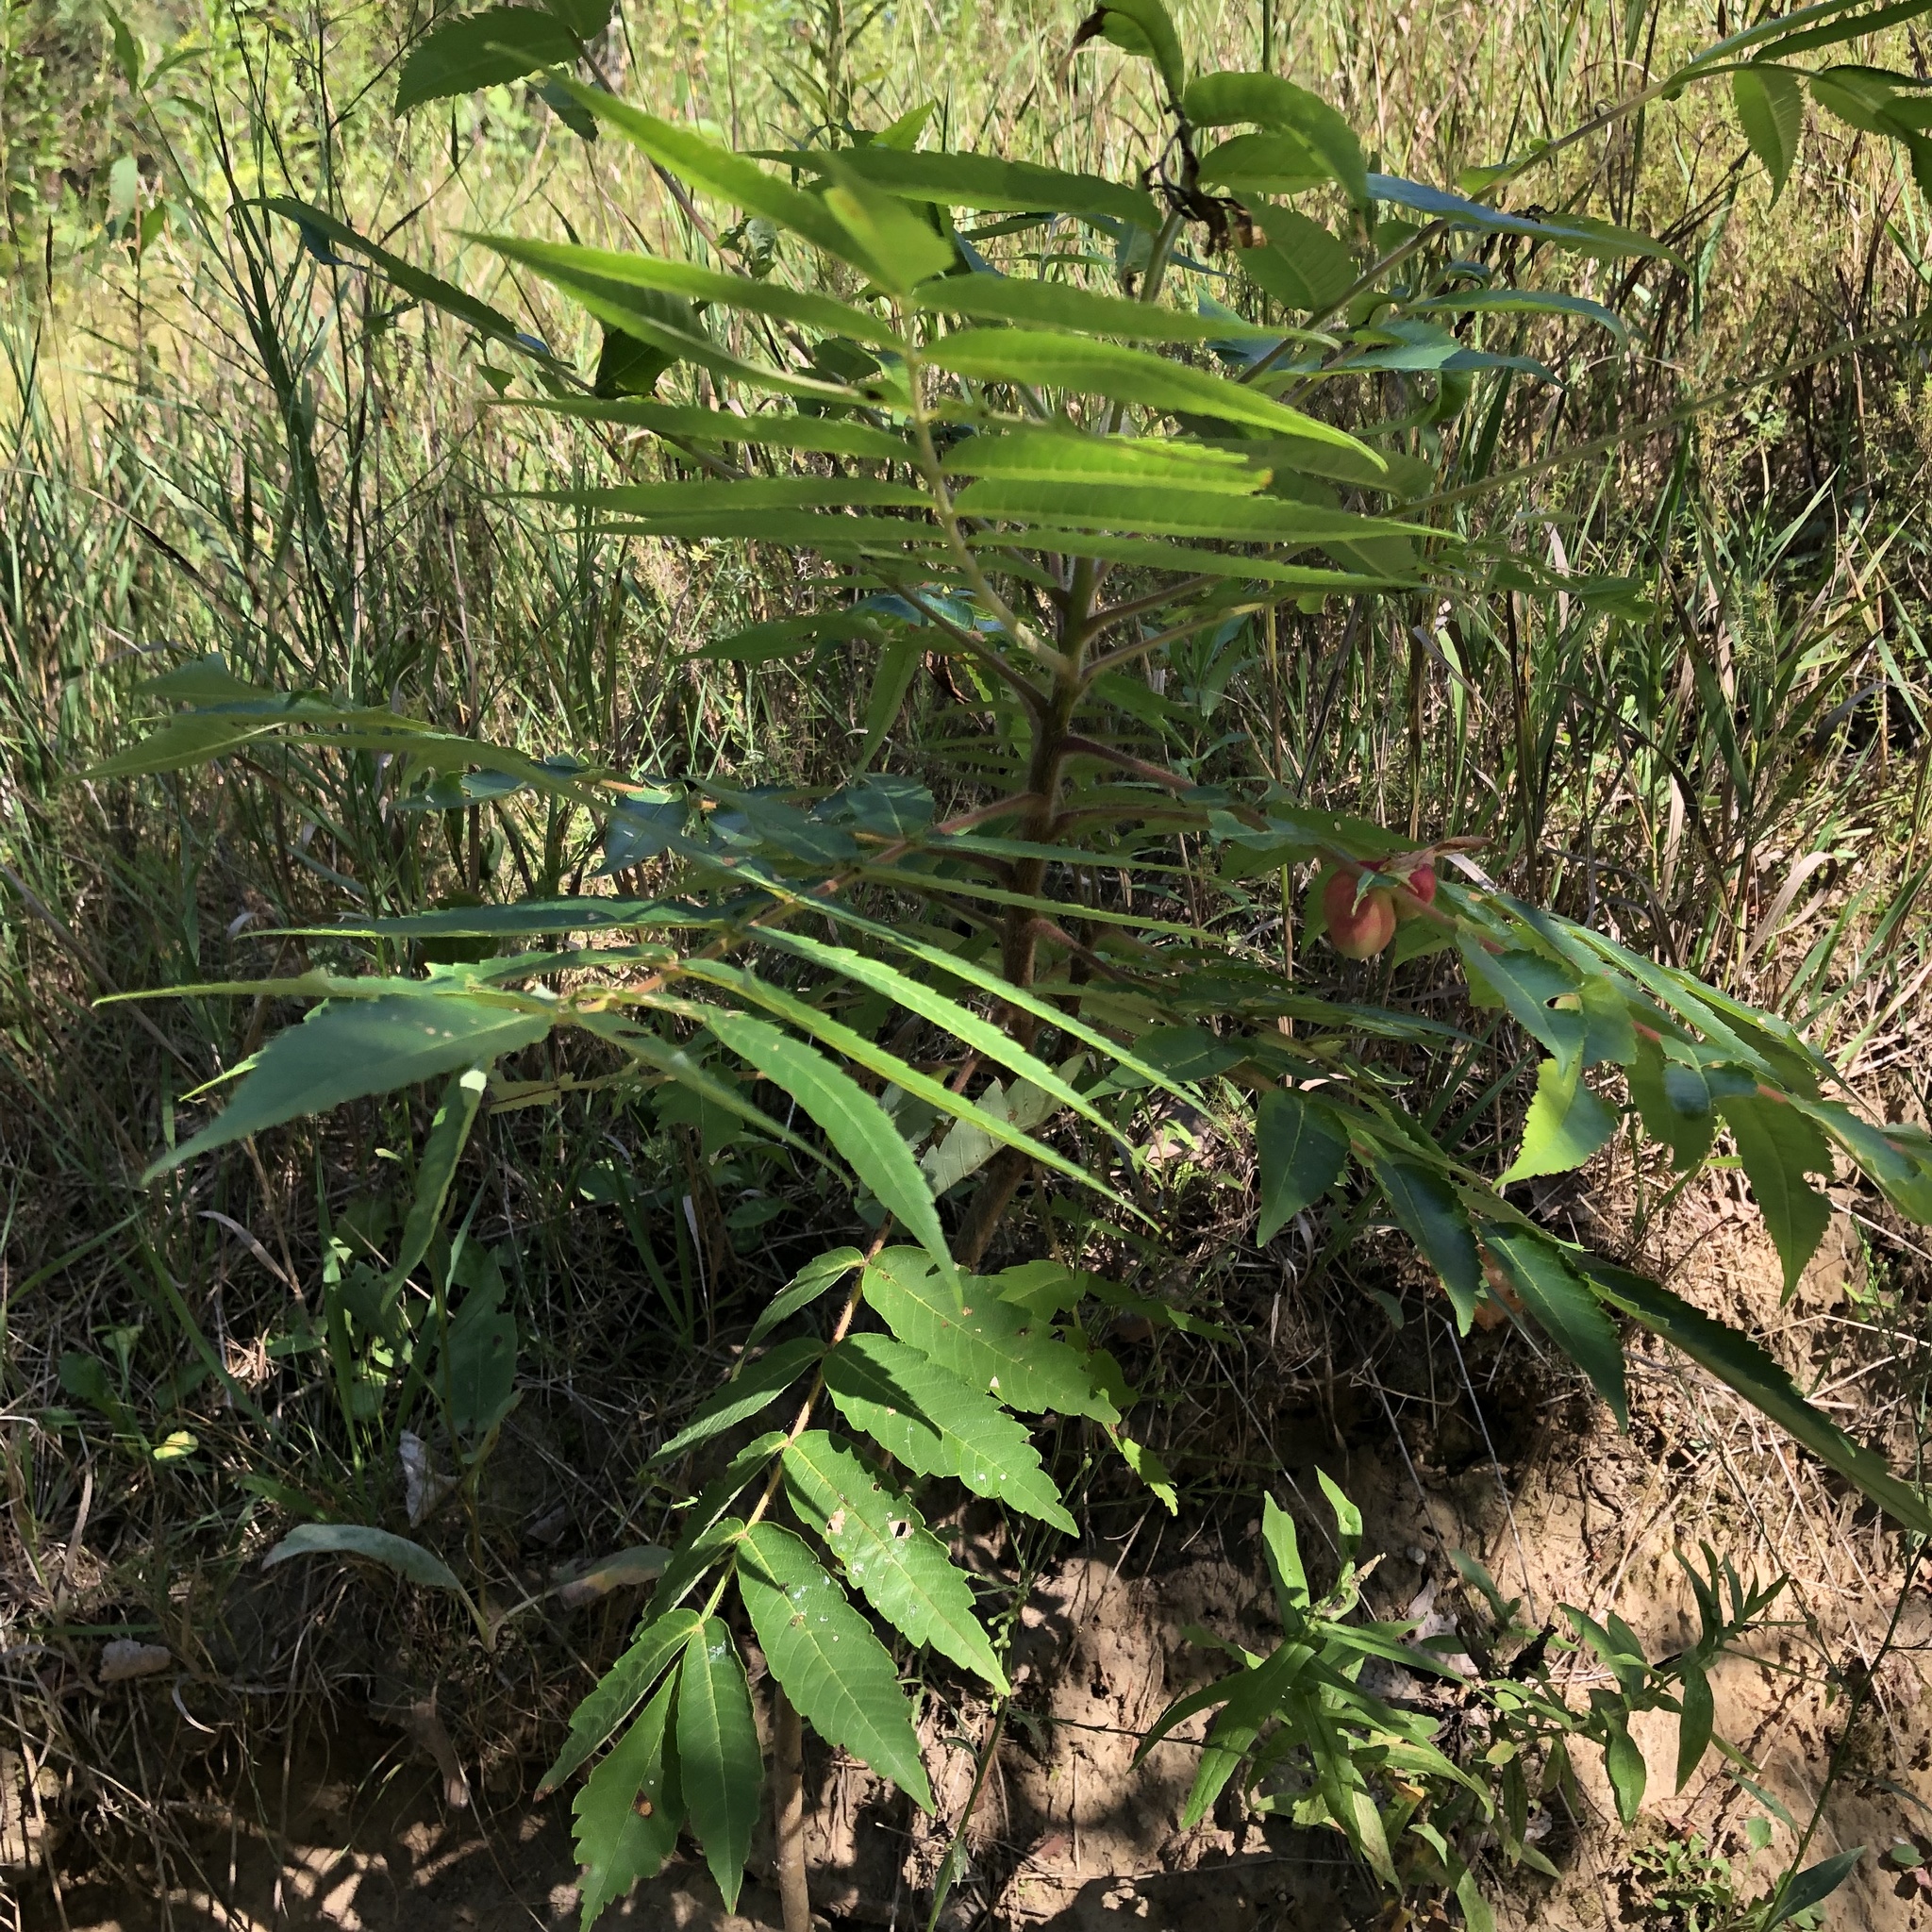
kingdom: Plantae
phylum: Tracheophyta
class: Magnoliopsida
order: Sapindales
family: Anacardiaceae
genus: Rhus
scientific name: Rhus typhina
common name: Staghorn sumac
